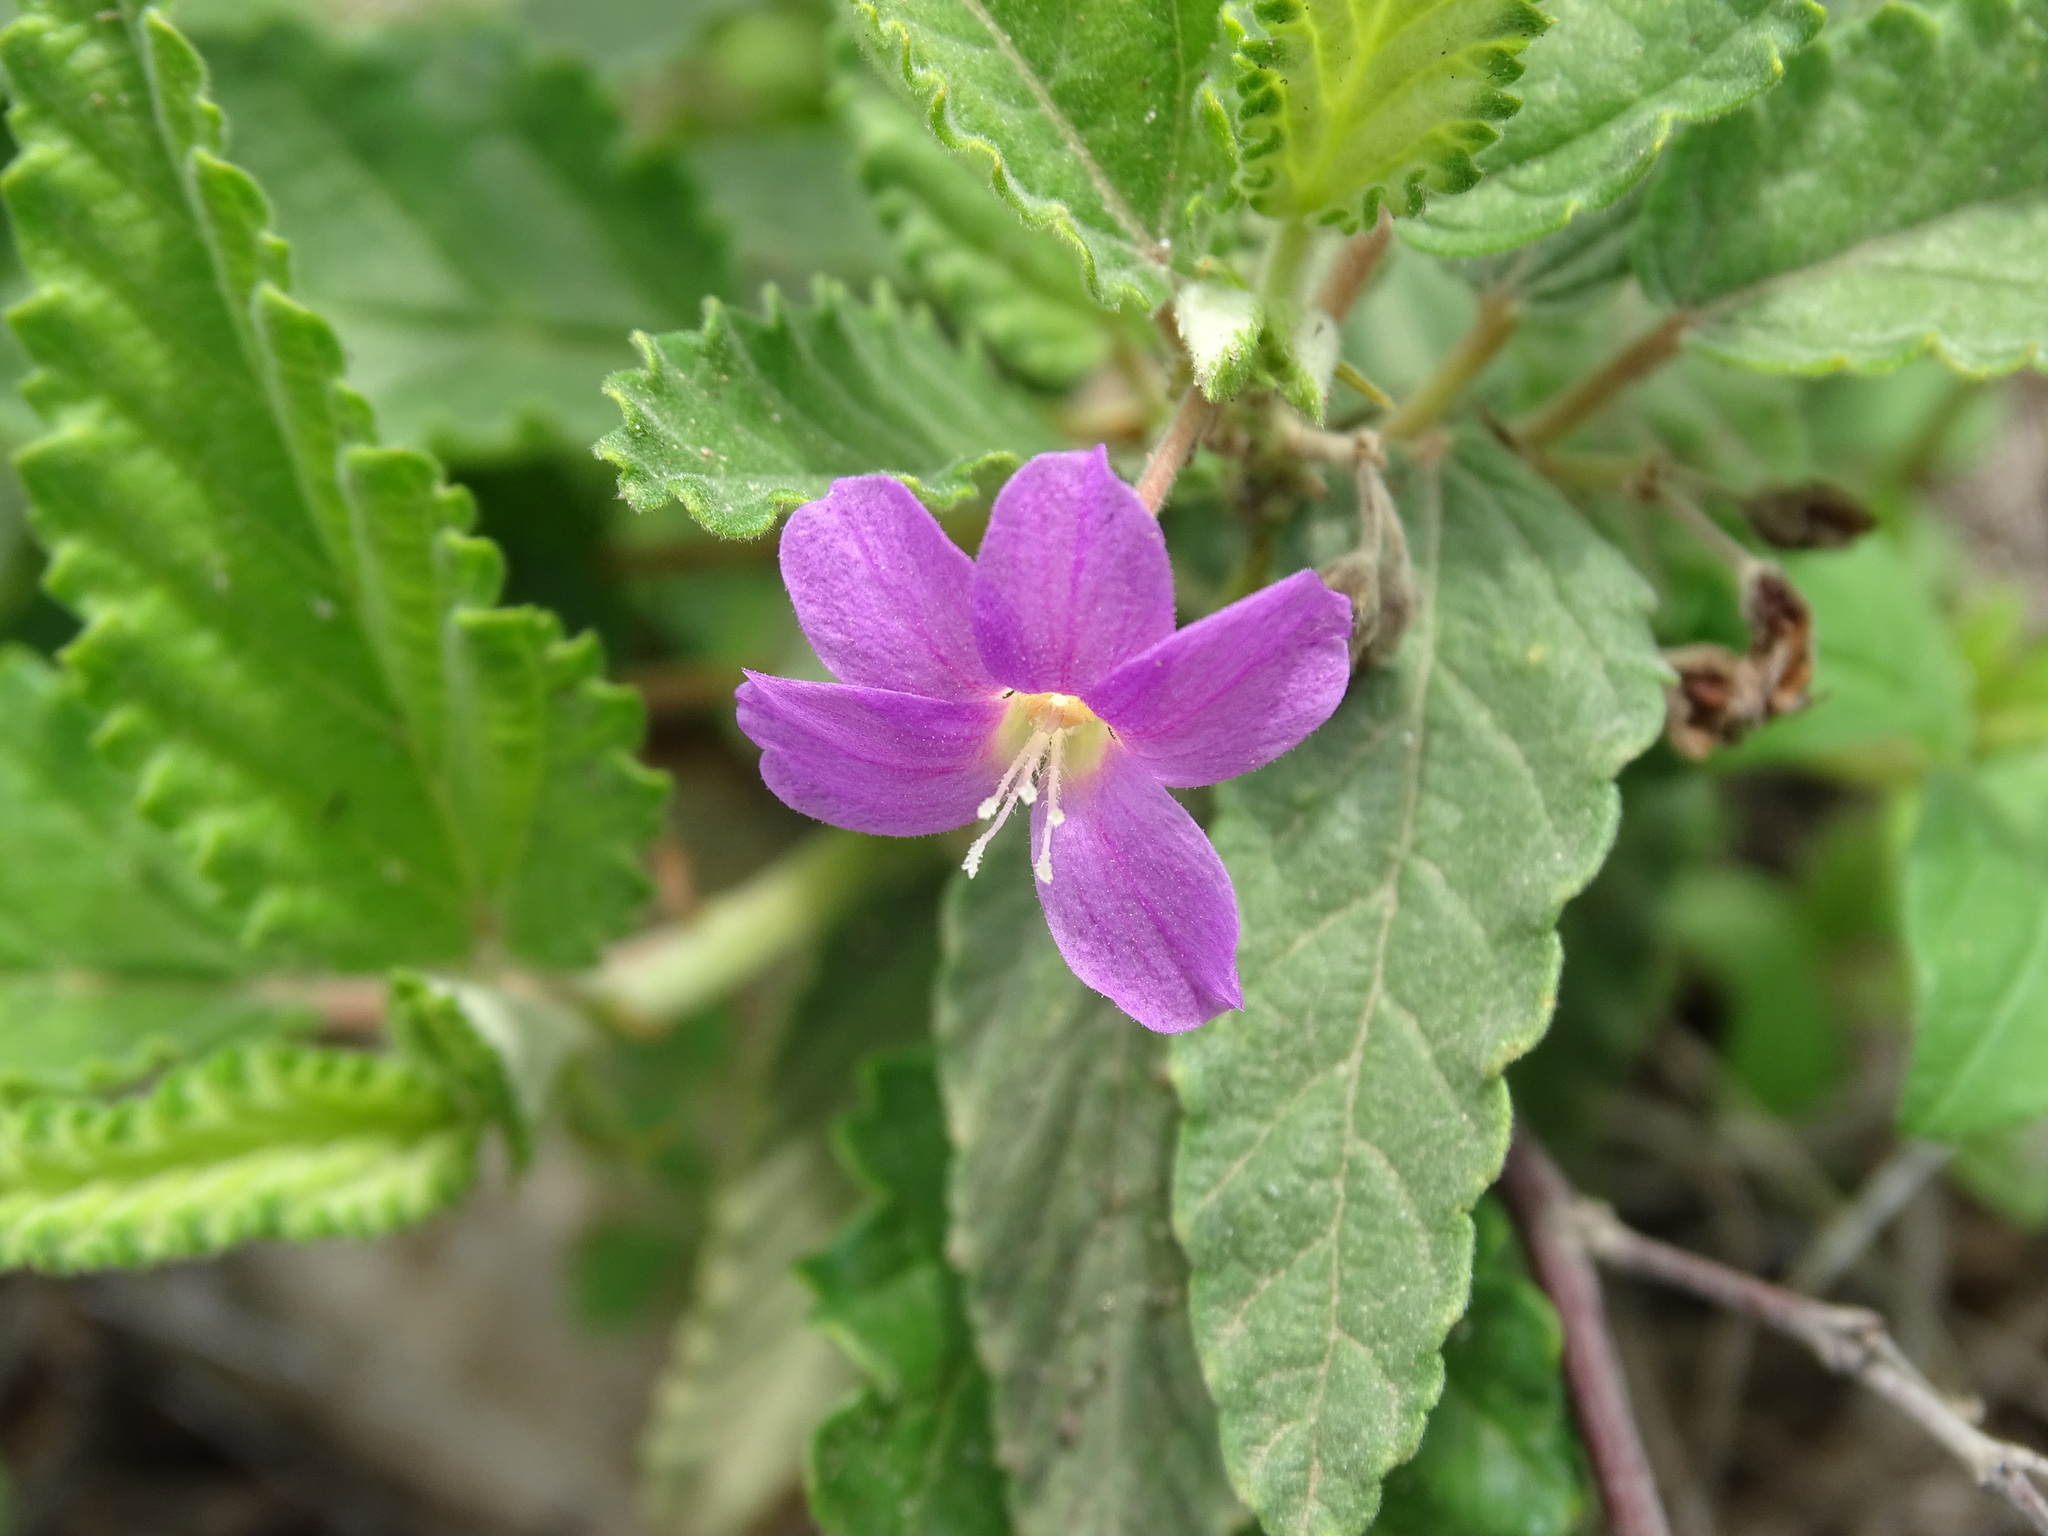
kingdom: Plantae
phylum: Tracheophyta
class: Magnoliopsida
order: Malvales
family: Malvaceae
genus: Melochia
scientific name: Melochia tomentosa
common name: Black torch
